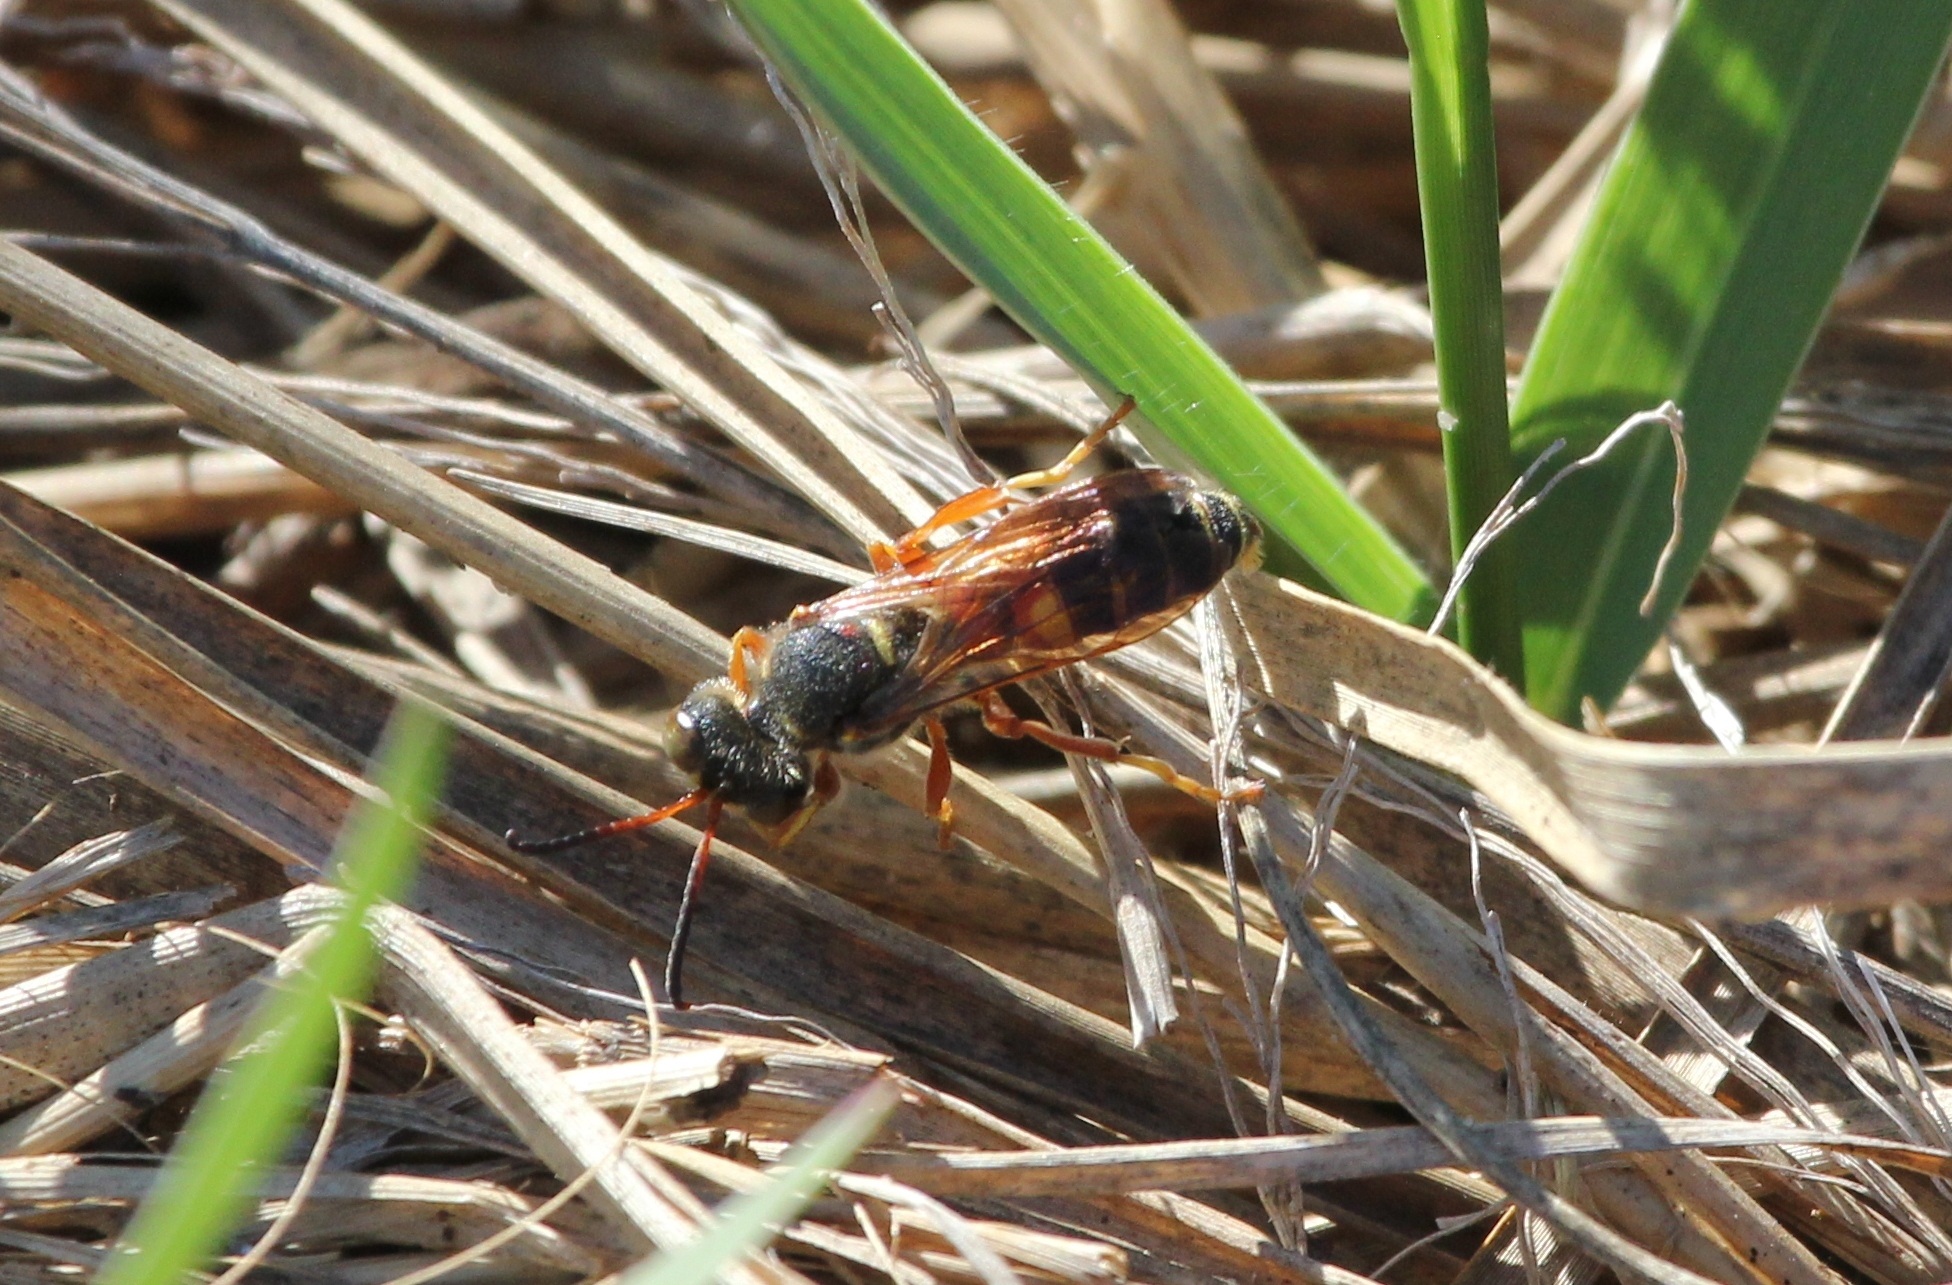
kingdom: Animalia
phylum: Arthropoda
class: Insecta
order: Hymenoptera
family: Crabronidae
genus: Cerceris
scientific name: Cerceris bicornuta
